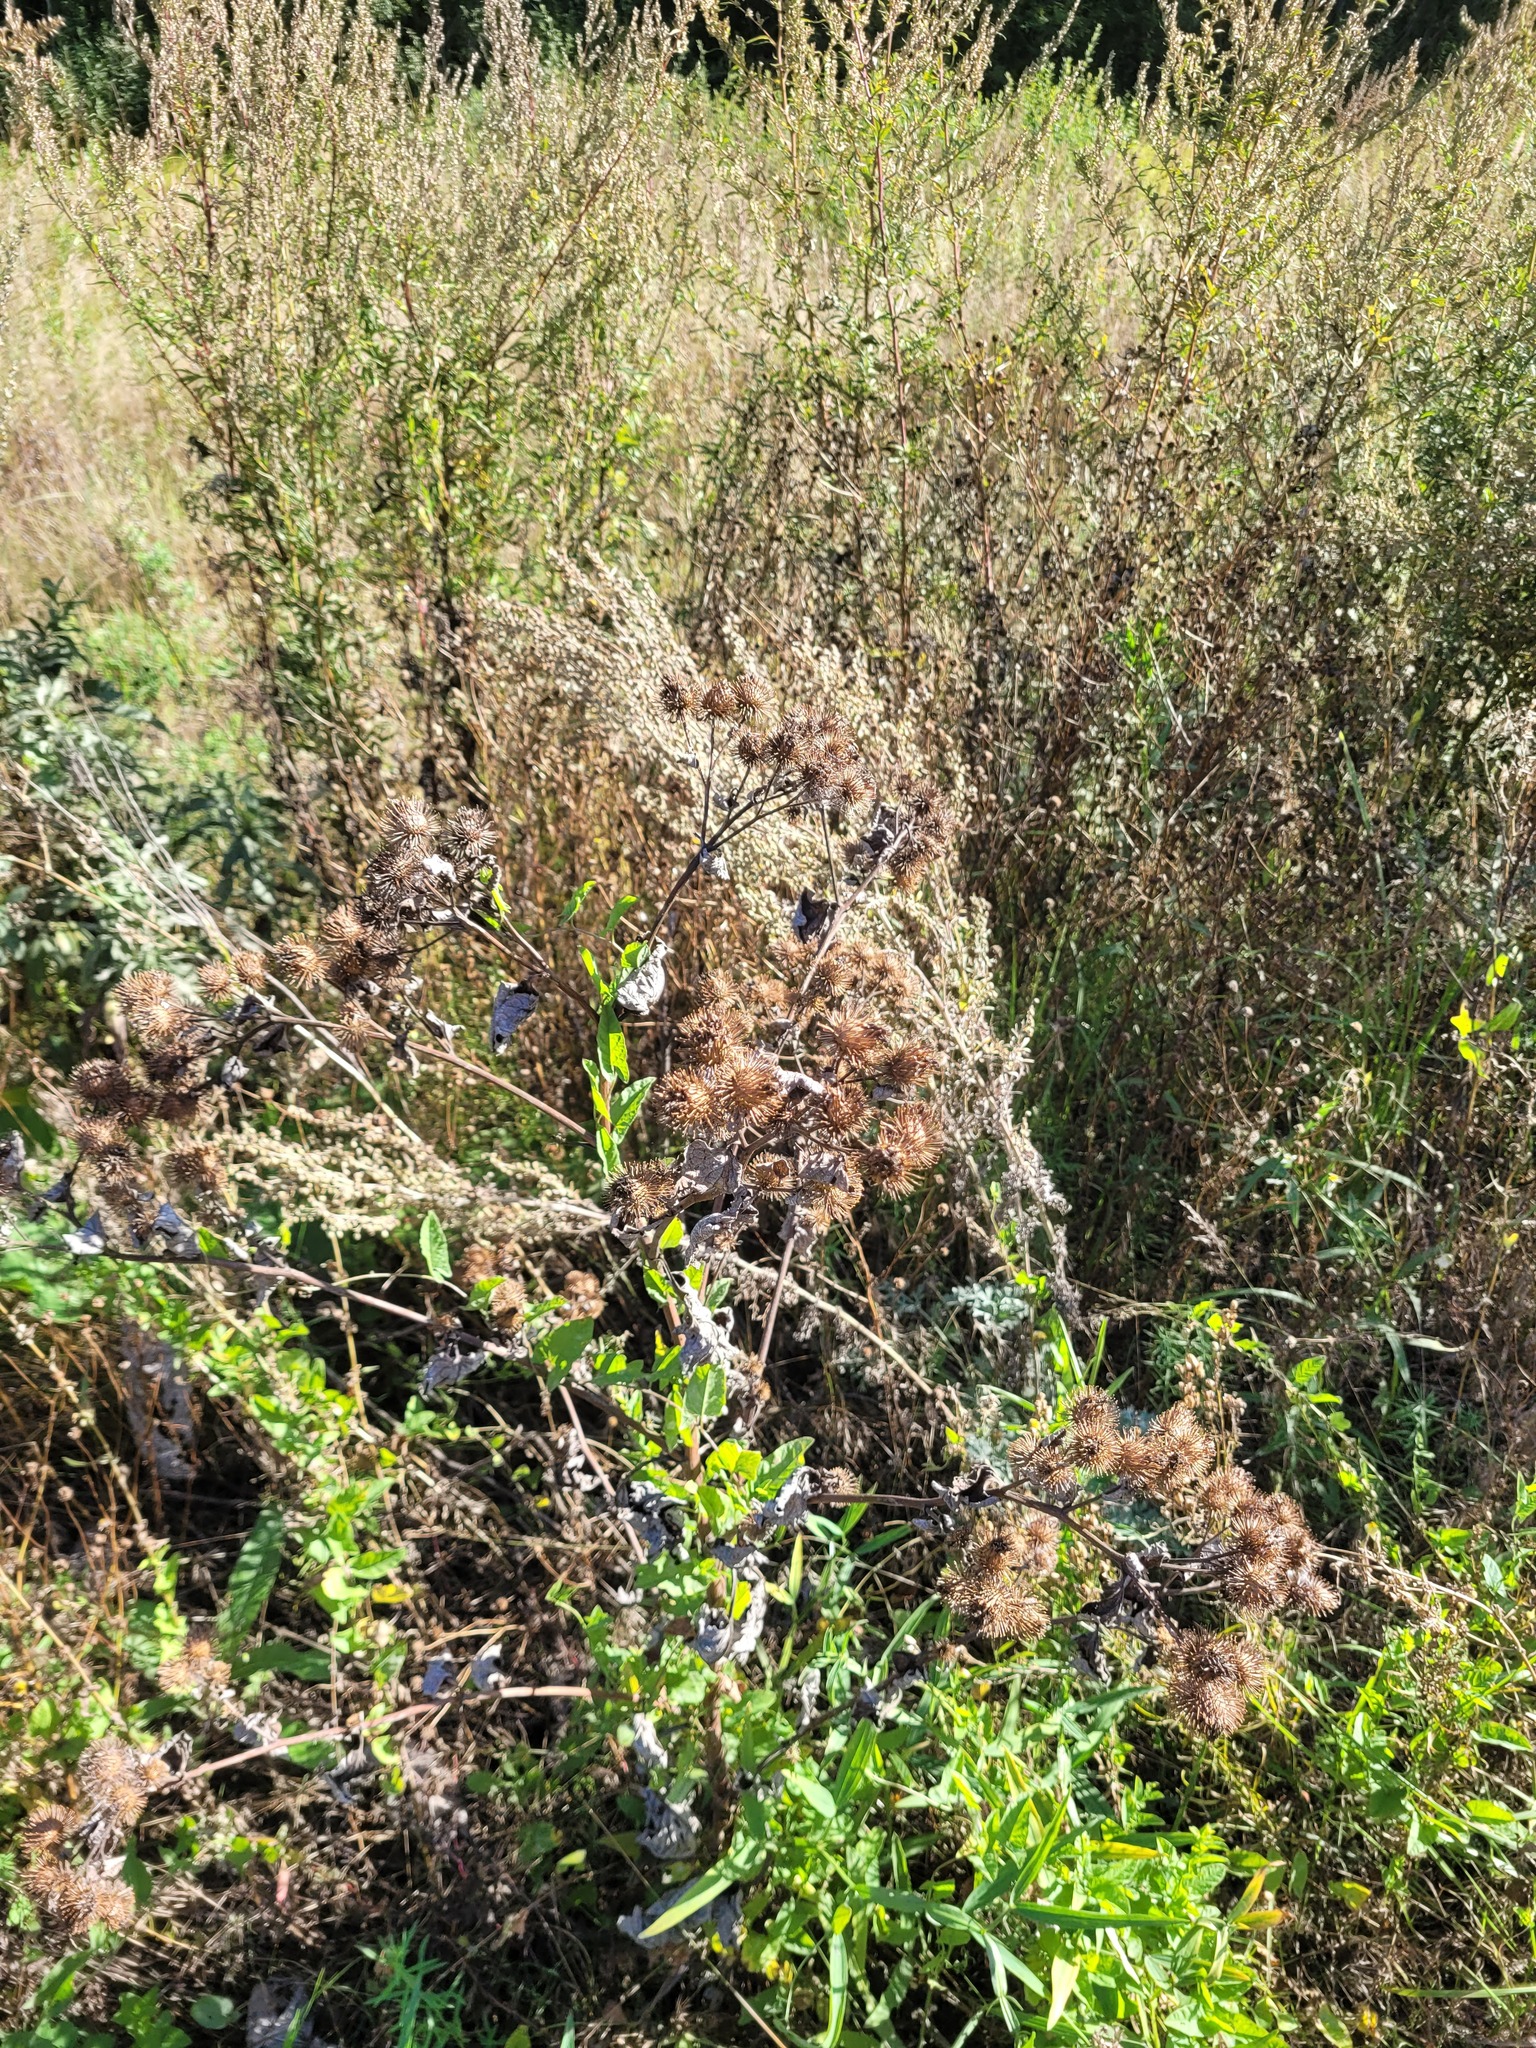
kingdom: Plantae
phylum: Tracheophyta
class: Magnoliopsida
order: Asterales
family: Asteraceae
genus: Arctium
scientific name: Arctium
